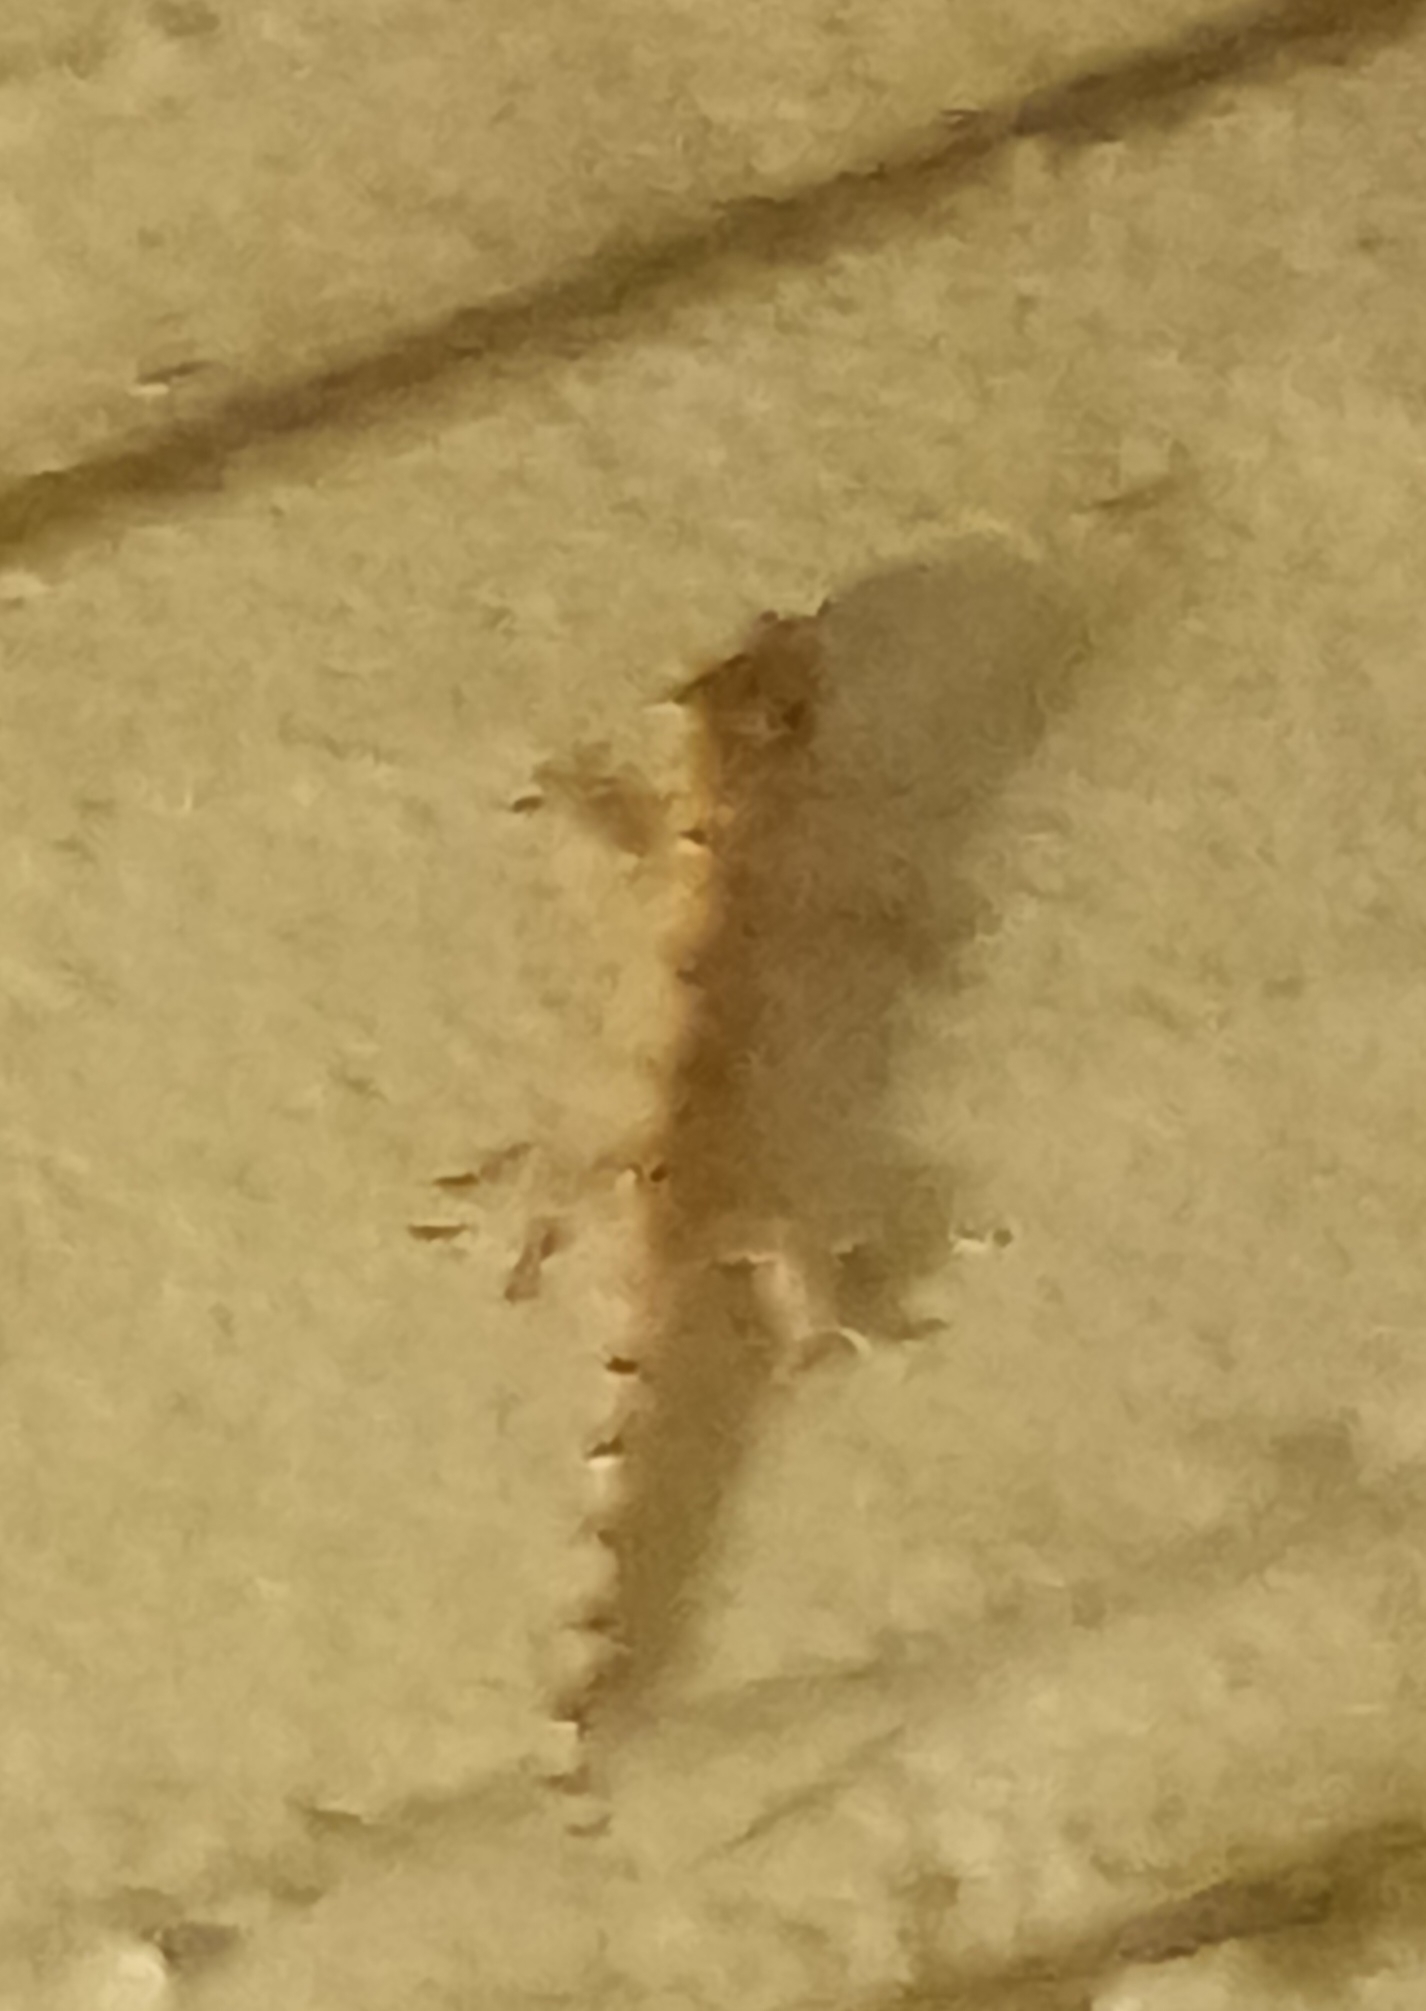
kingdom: Animalia
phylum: Chordata
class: Squamata
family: Gekkonidae
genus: Hemidactylus
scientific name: Hemidactylus mabouia
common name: House gecko
